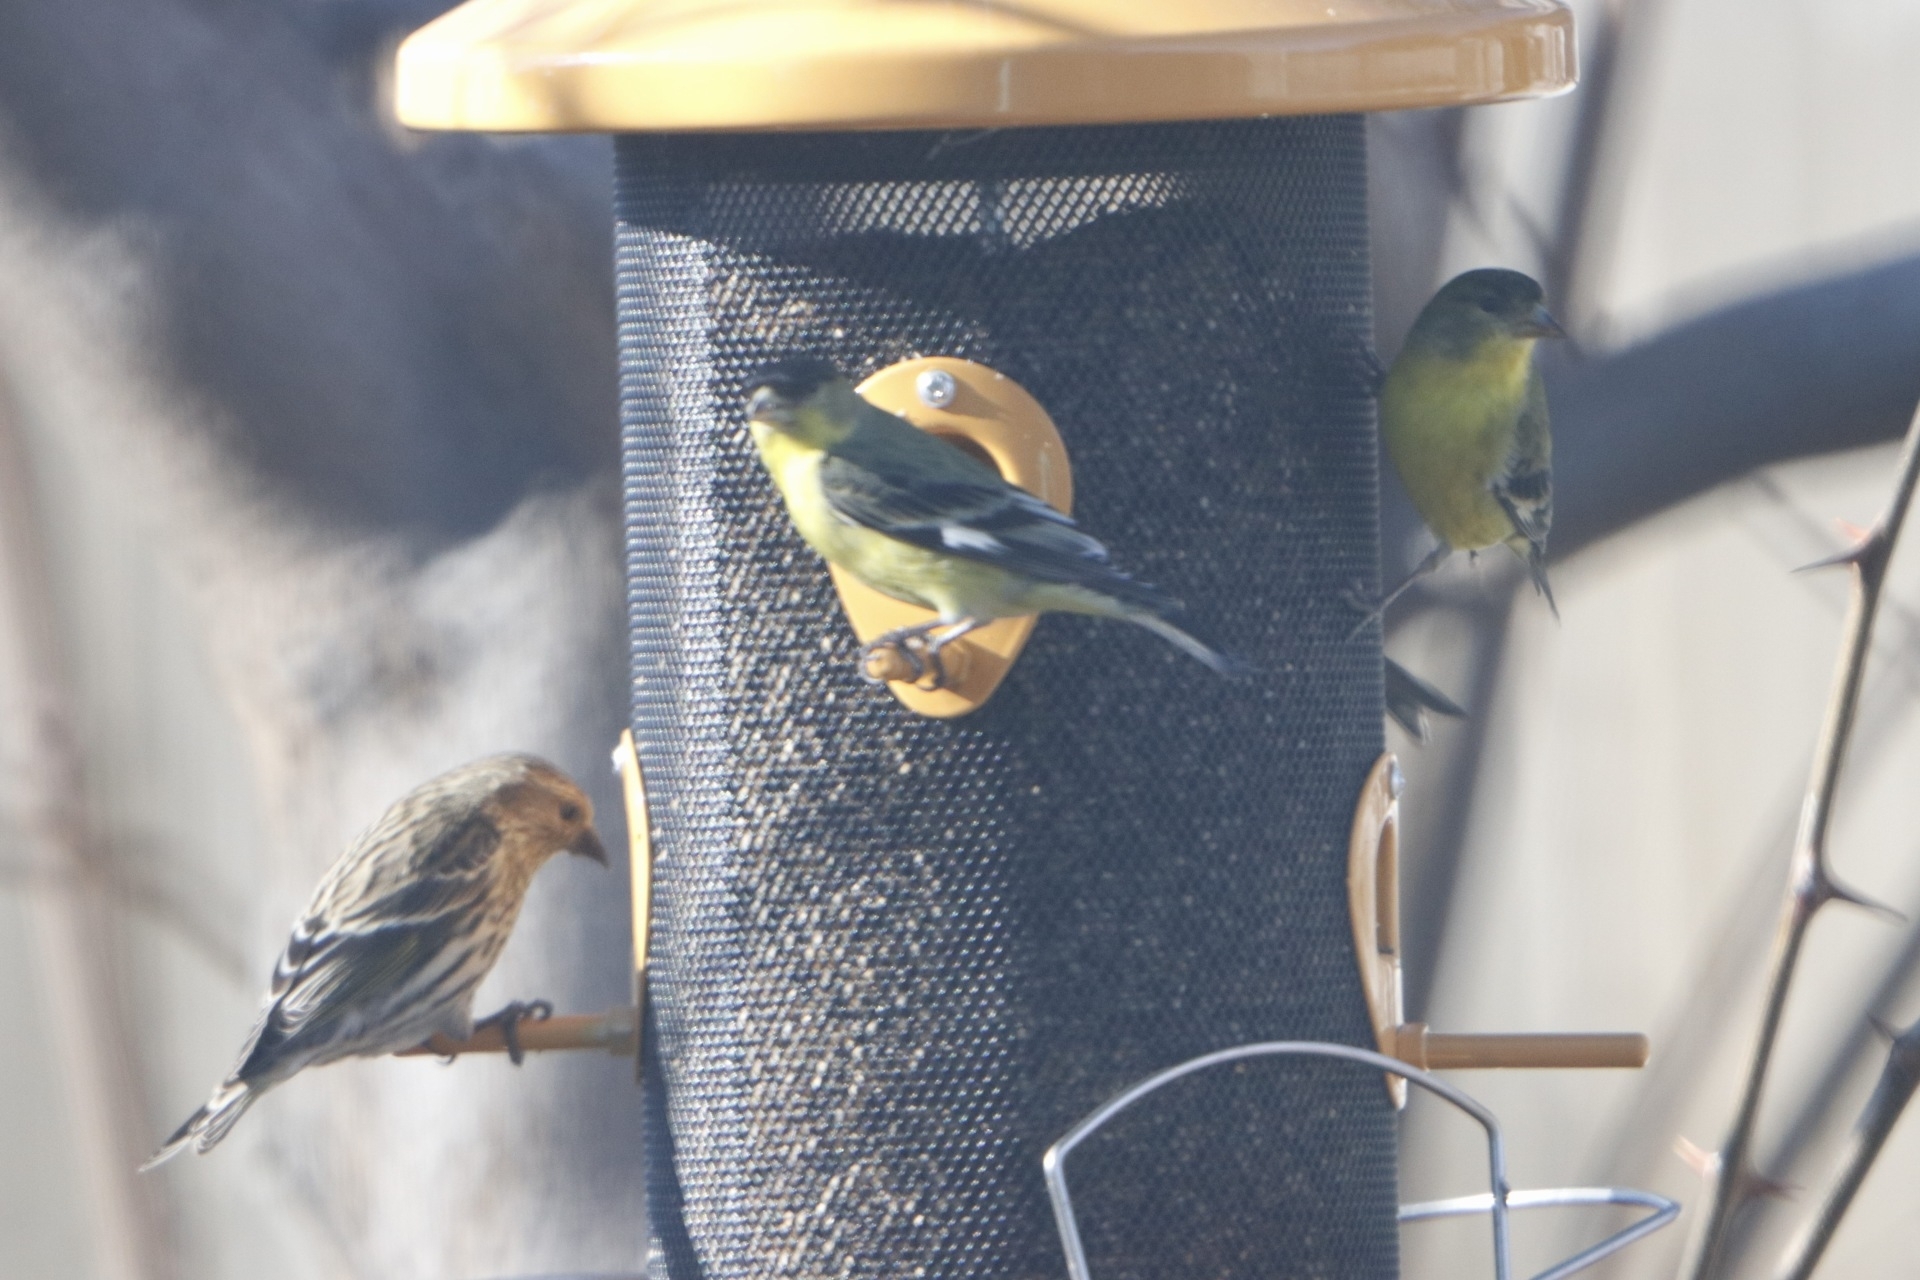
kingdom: Animalia
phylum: Chordata
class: Aves
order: Passeriformes
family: Fringillidae
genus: Spinus
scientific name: Spinus psaltria
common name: Lesser goldfinch
